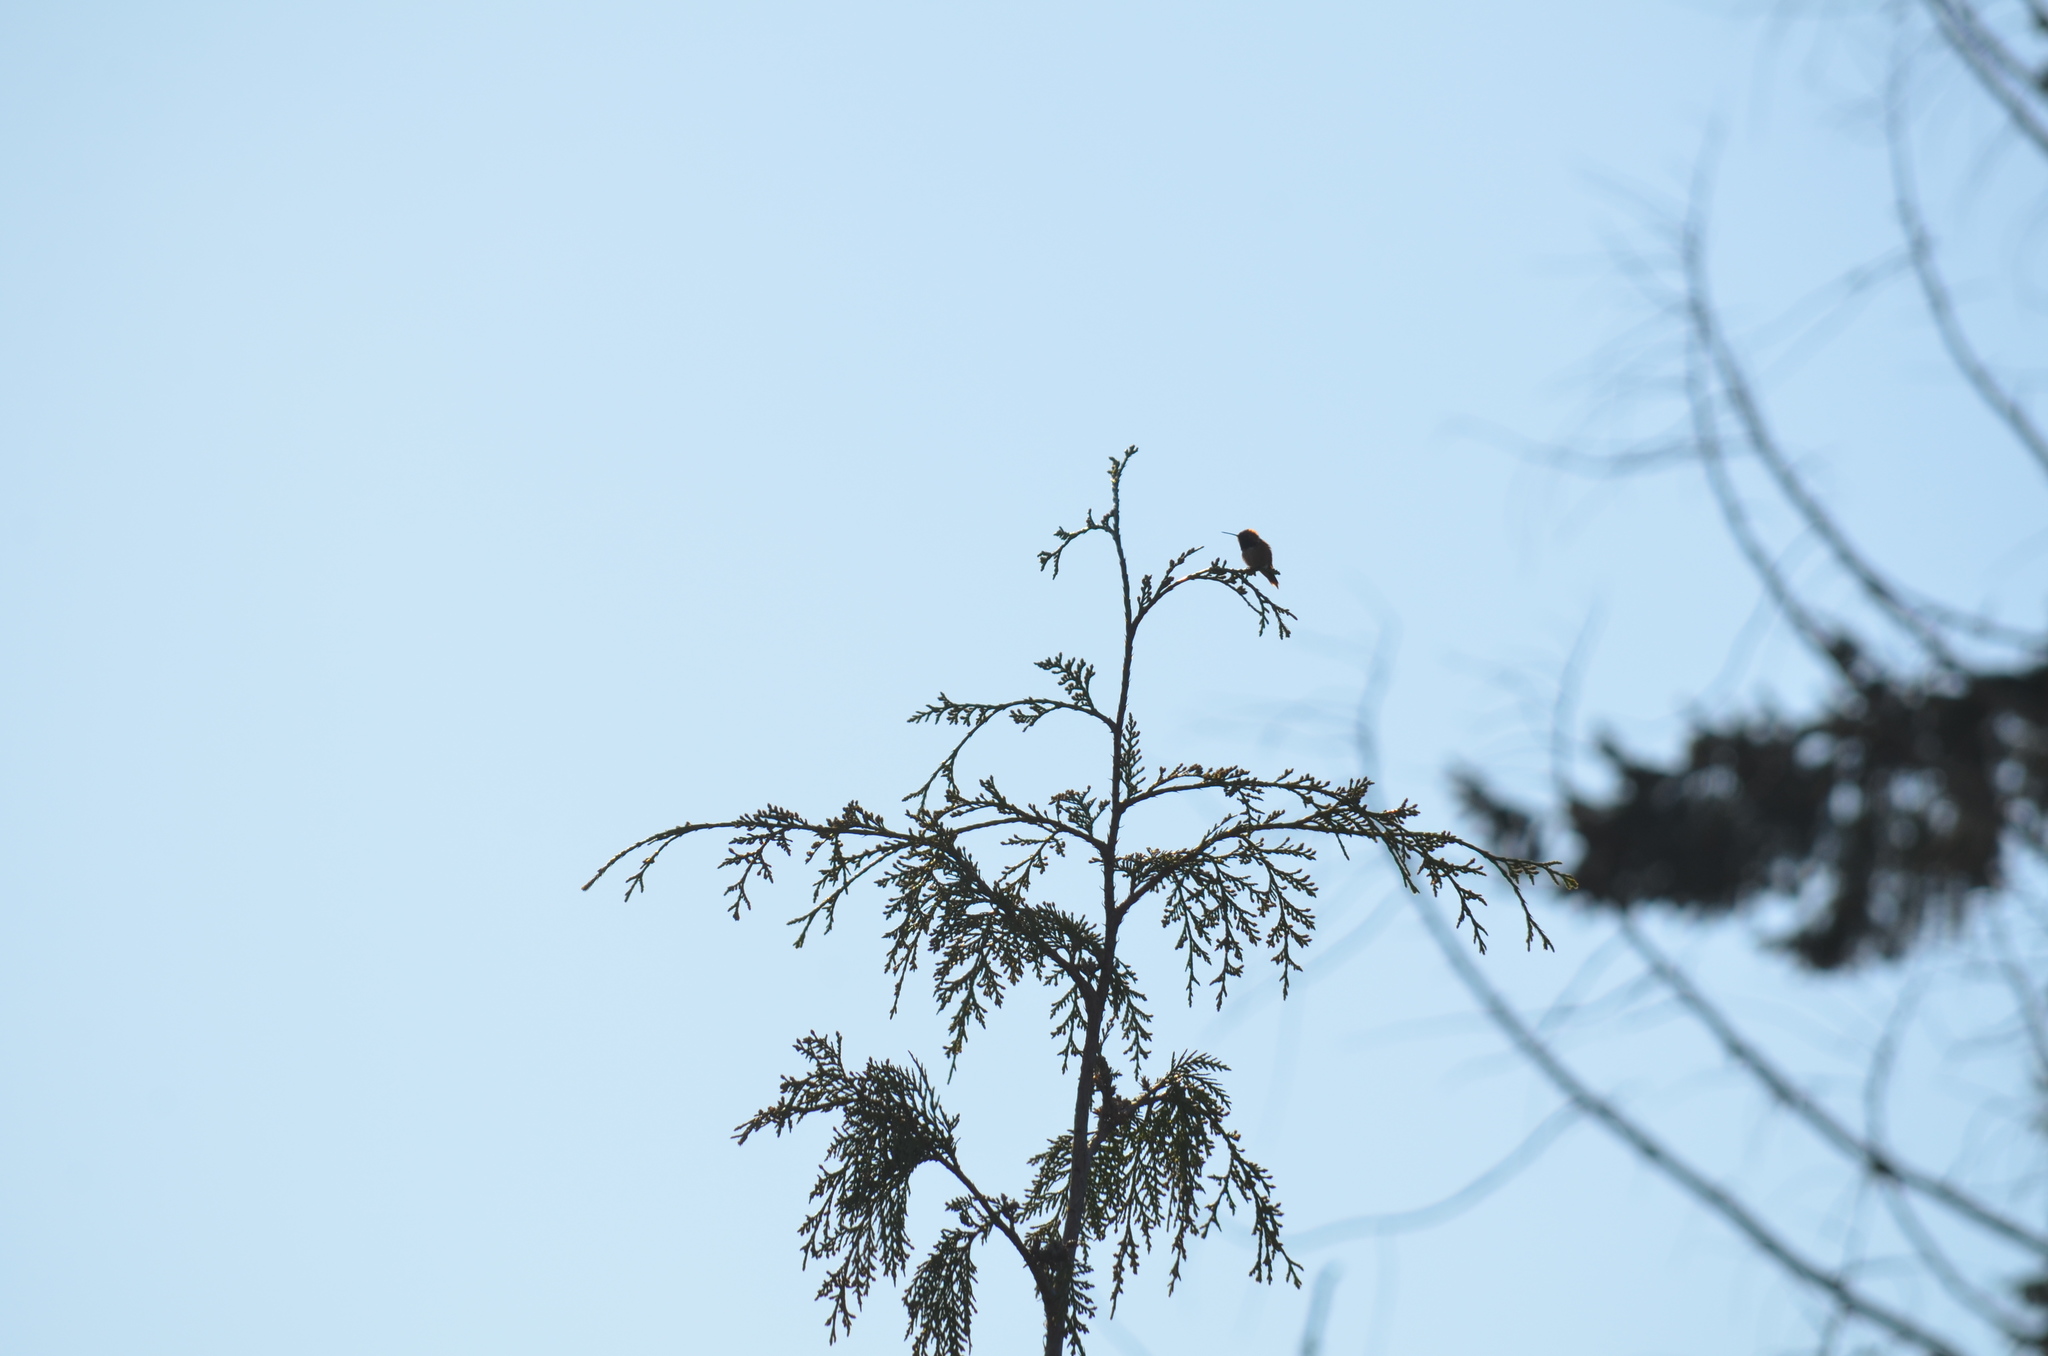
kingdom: Animalia
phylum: Chordata
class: Aves
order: Apodiformes
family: Trochilidae
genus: Selasphorus
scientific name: Selasphorus rufus
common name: Rufous hummingbird
